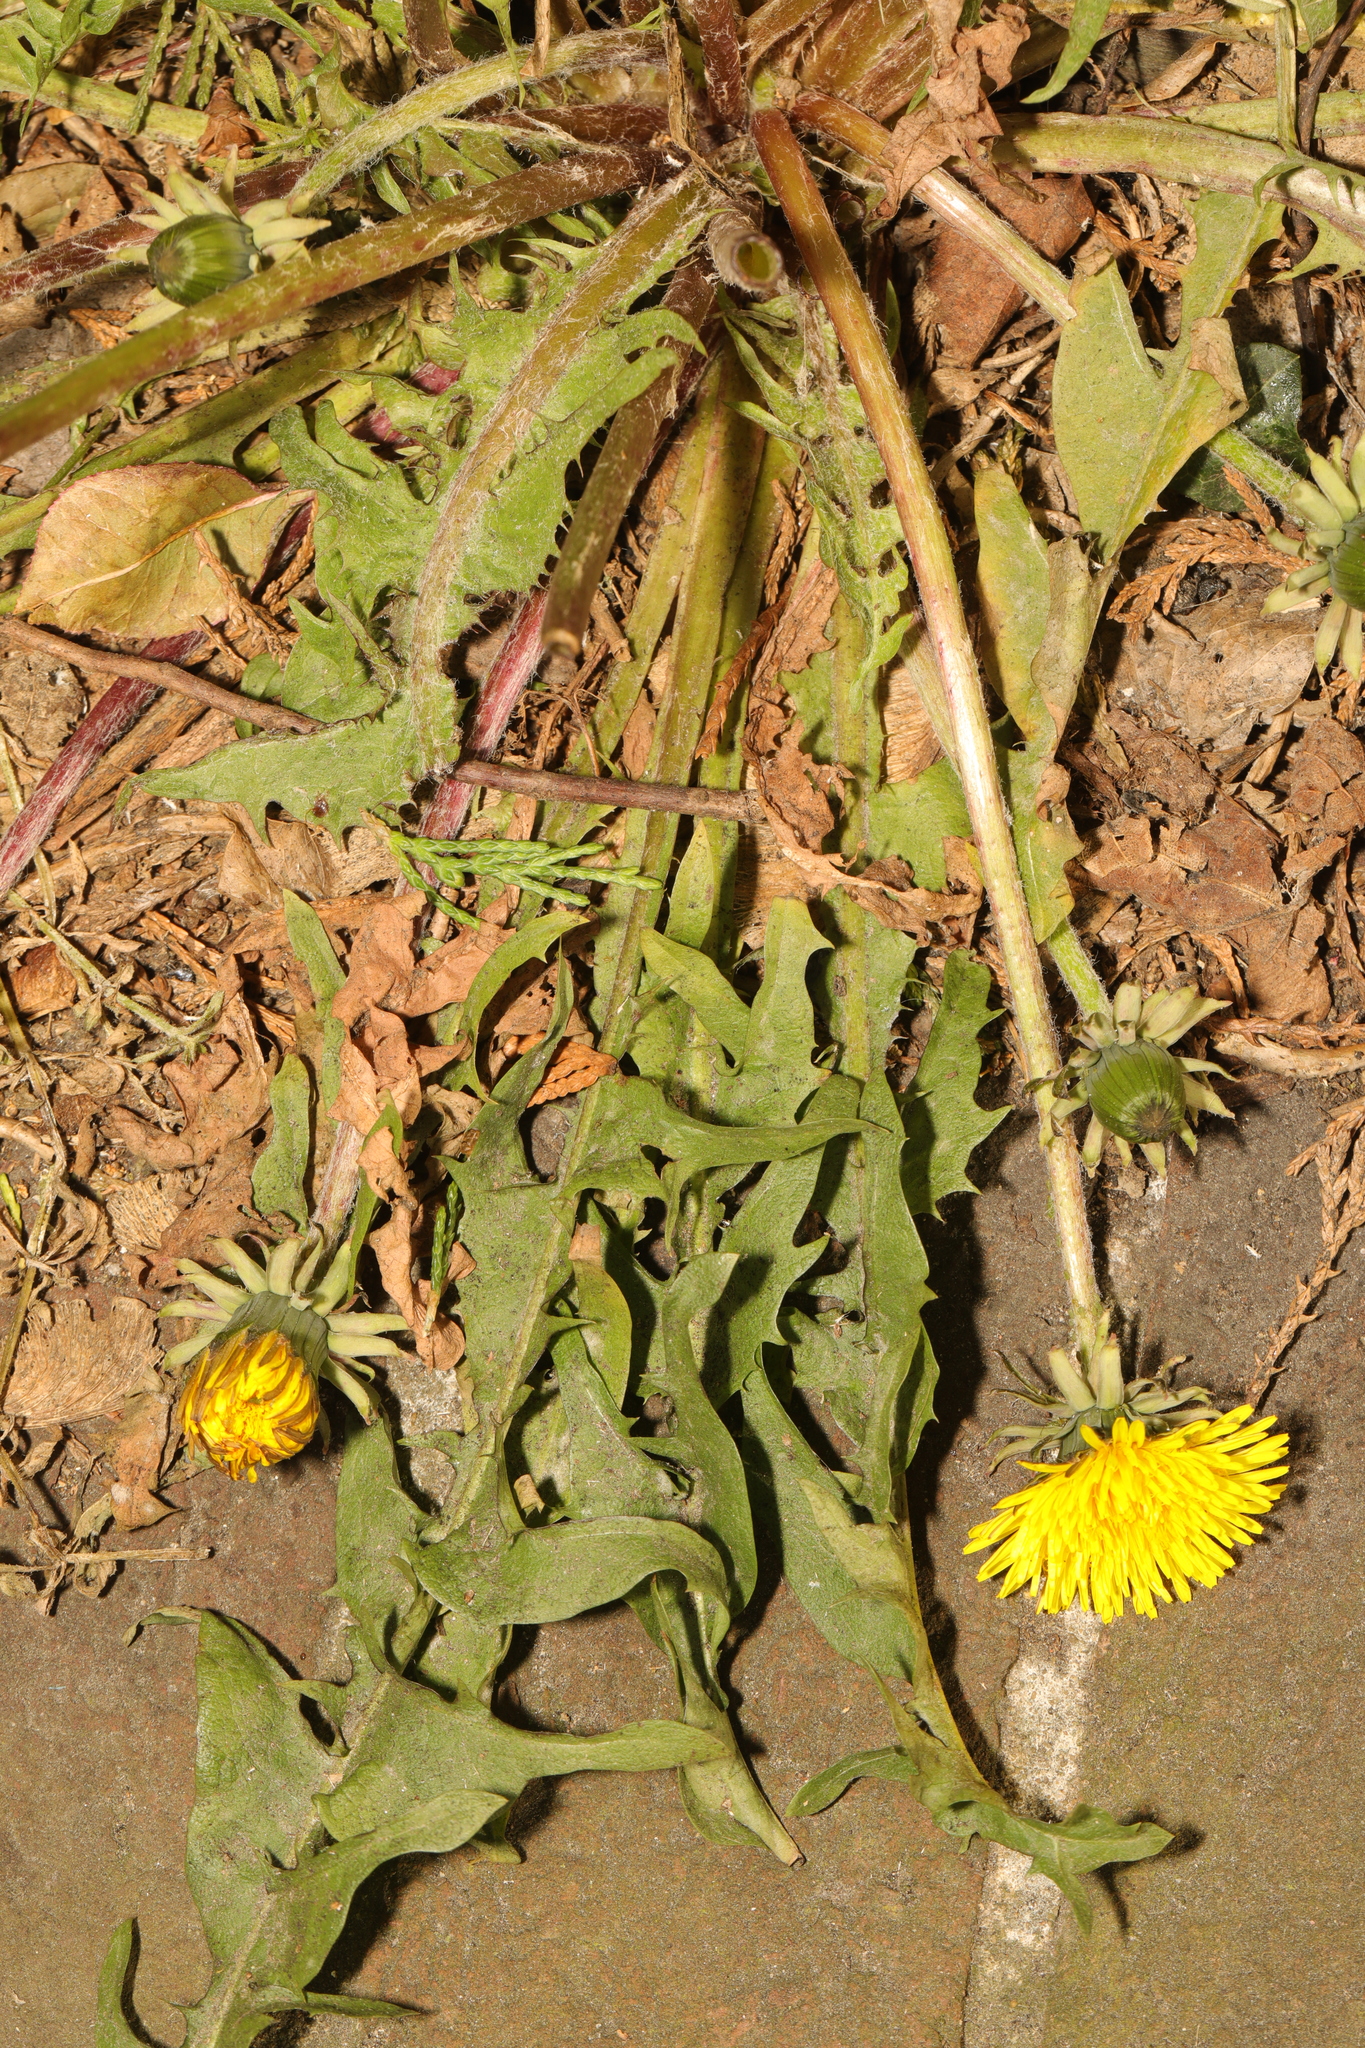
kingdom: Plantae
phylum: Tracheophyta
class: Magnoliopsida
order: Asterales
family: Asteraceae
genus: Taraxacum
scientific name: Taraxacum
